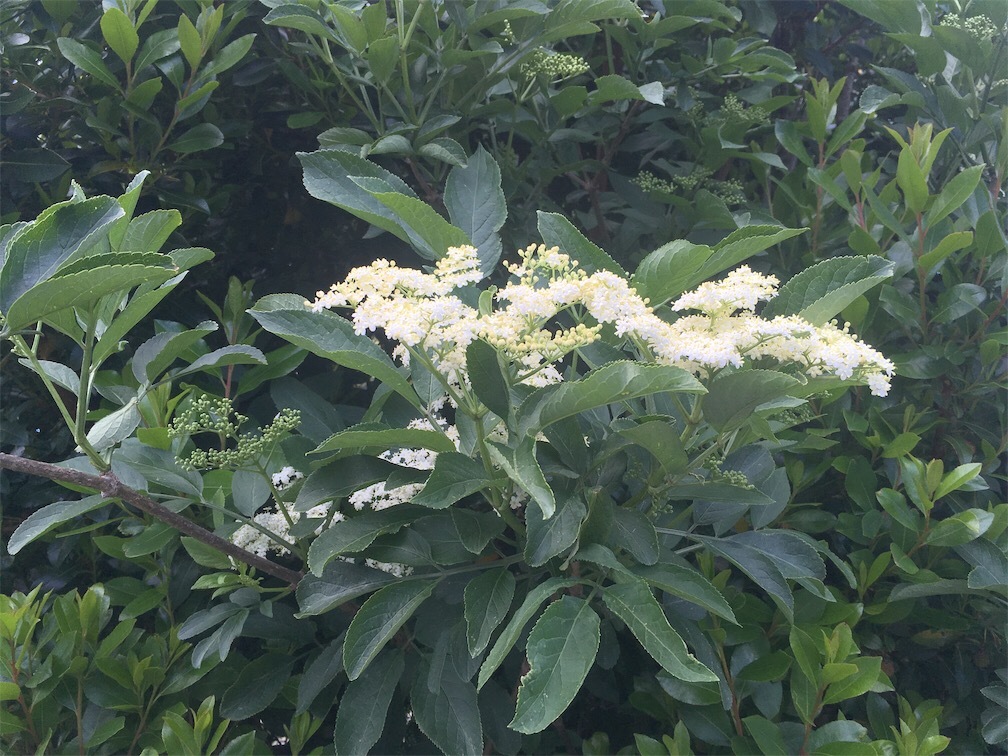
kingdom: Plantae
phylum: Tracheophyta
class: Magnoliopsida
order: Dipsacales
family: Viburnaceae
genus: Sambucus
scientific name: Sambucus nigra
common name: Elder
